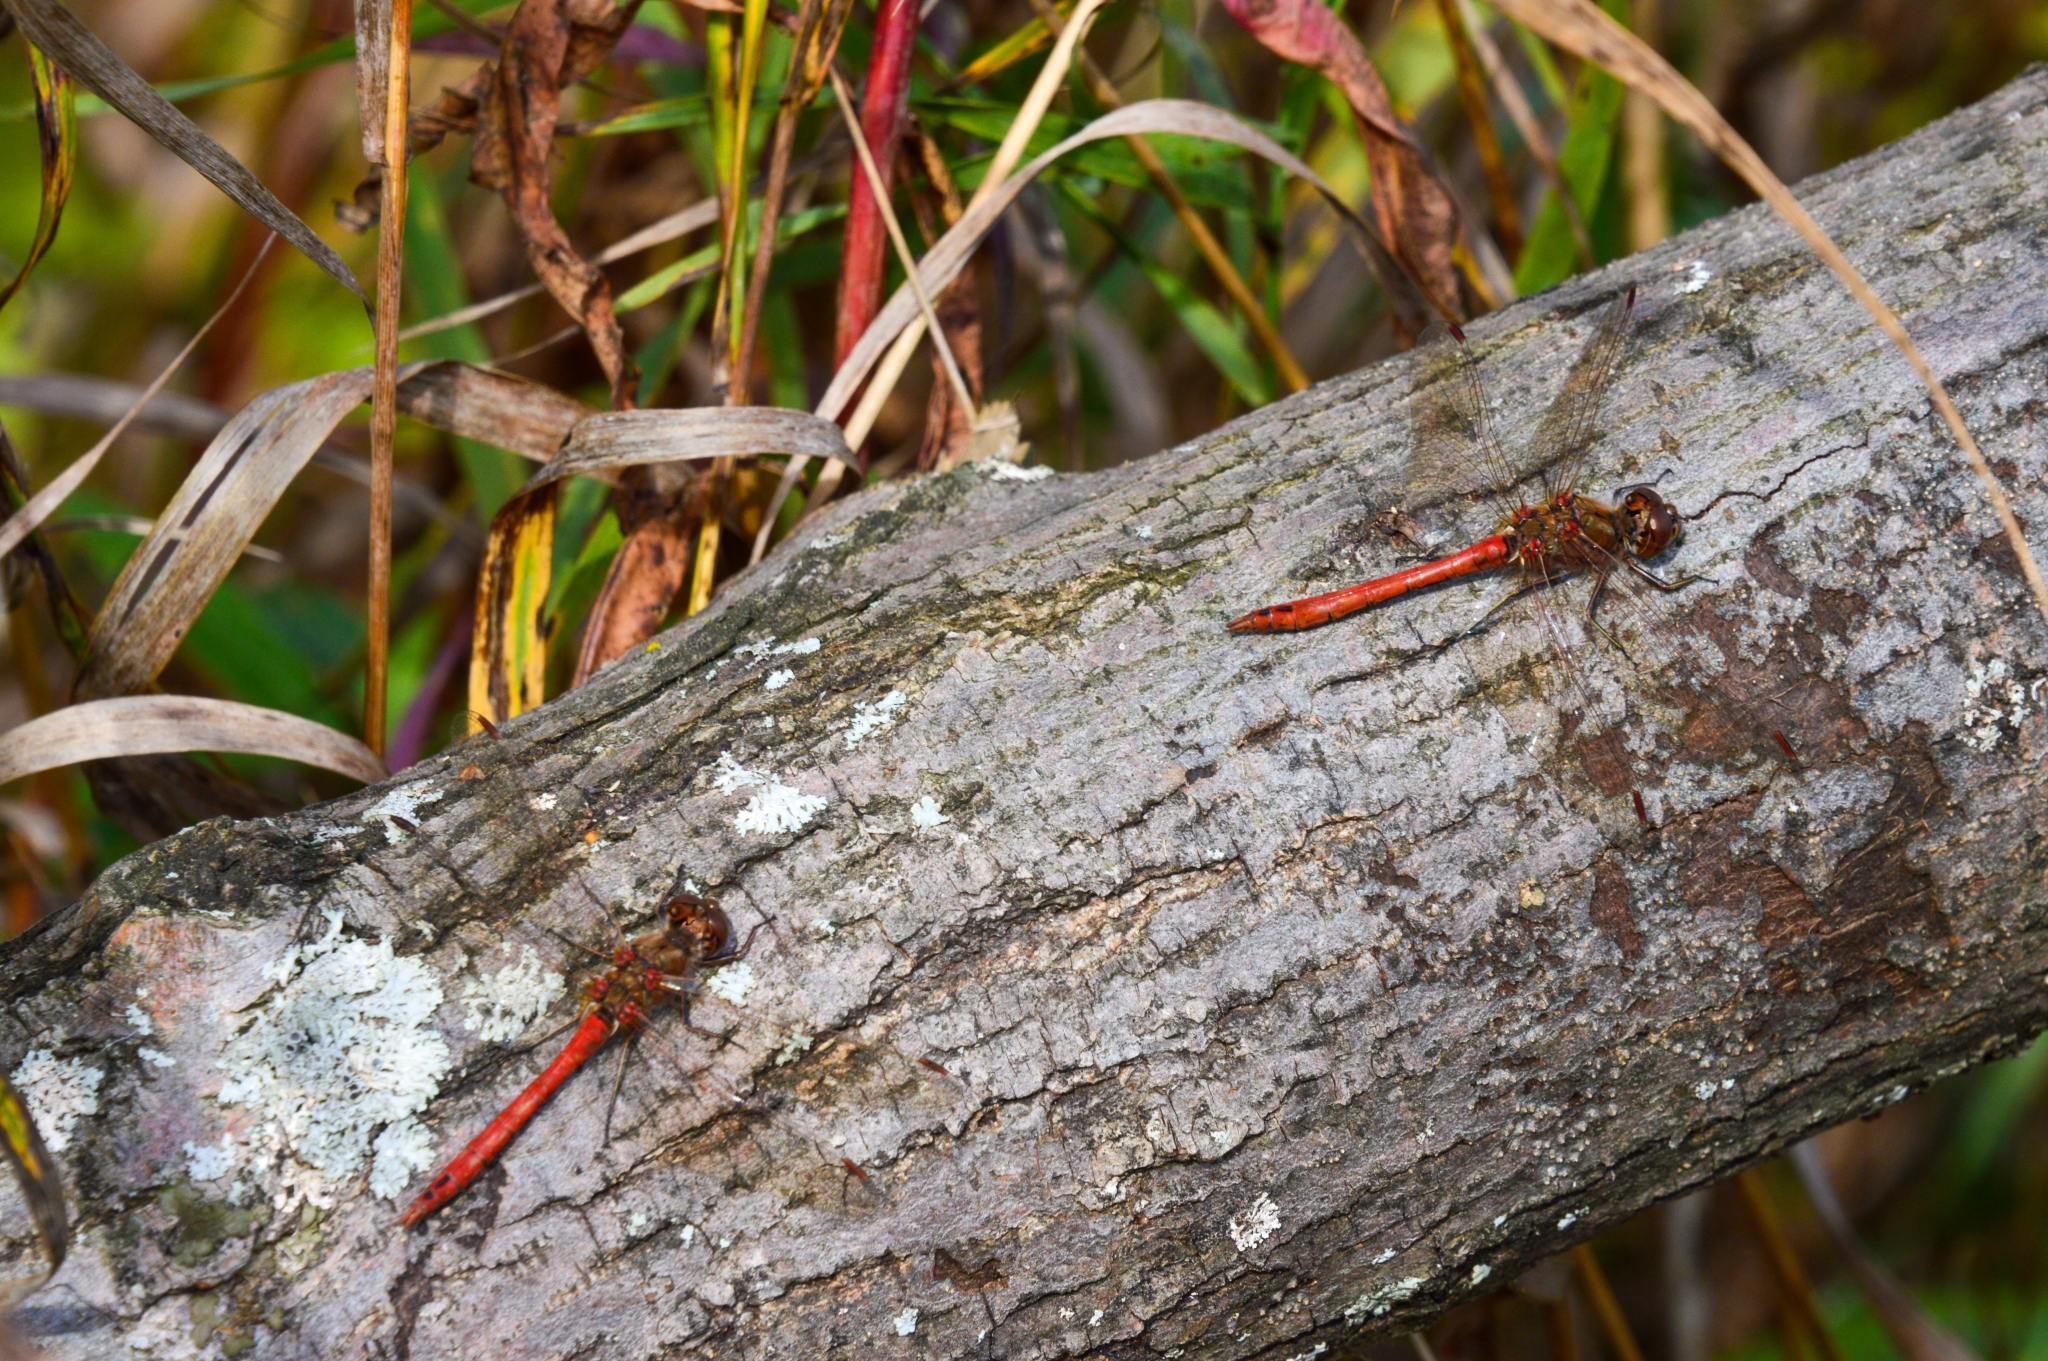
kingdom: Animalia
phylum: Arthropoda
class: Insecta
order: Odonata
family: Libellulidae
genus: Sympetrum
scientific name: Sympetrum vulgatum
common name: Vagrant darter
